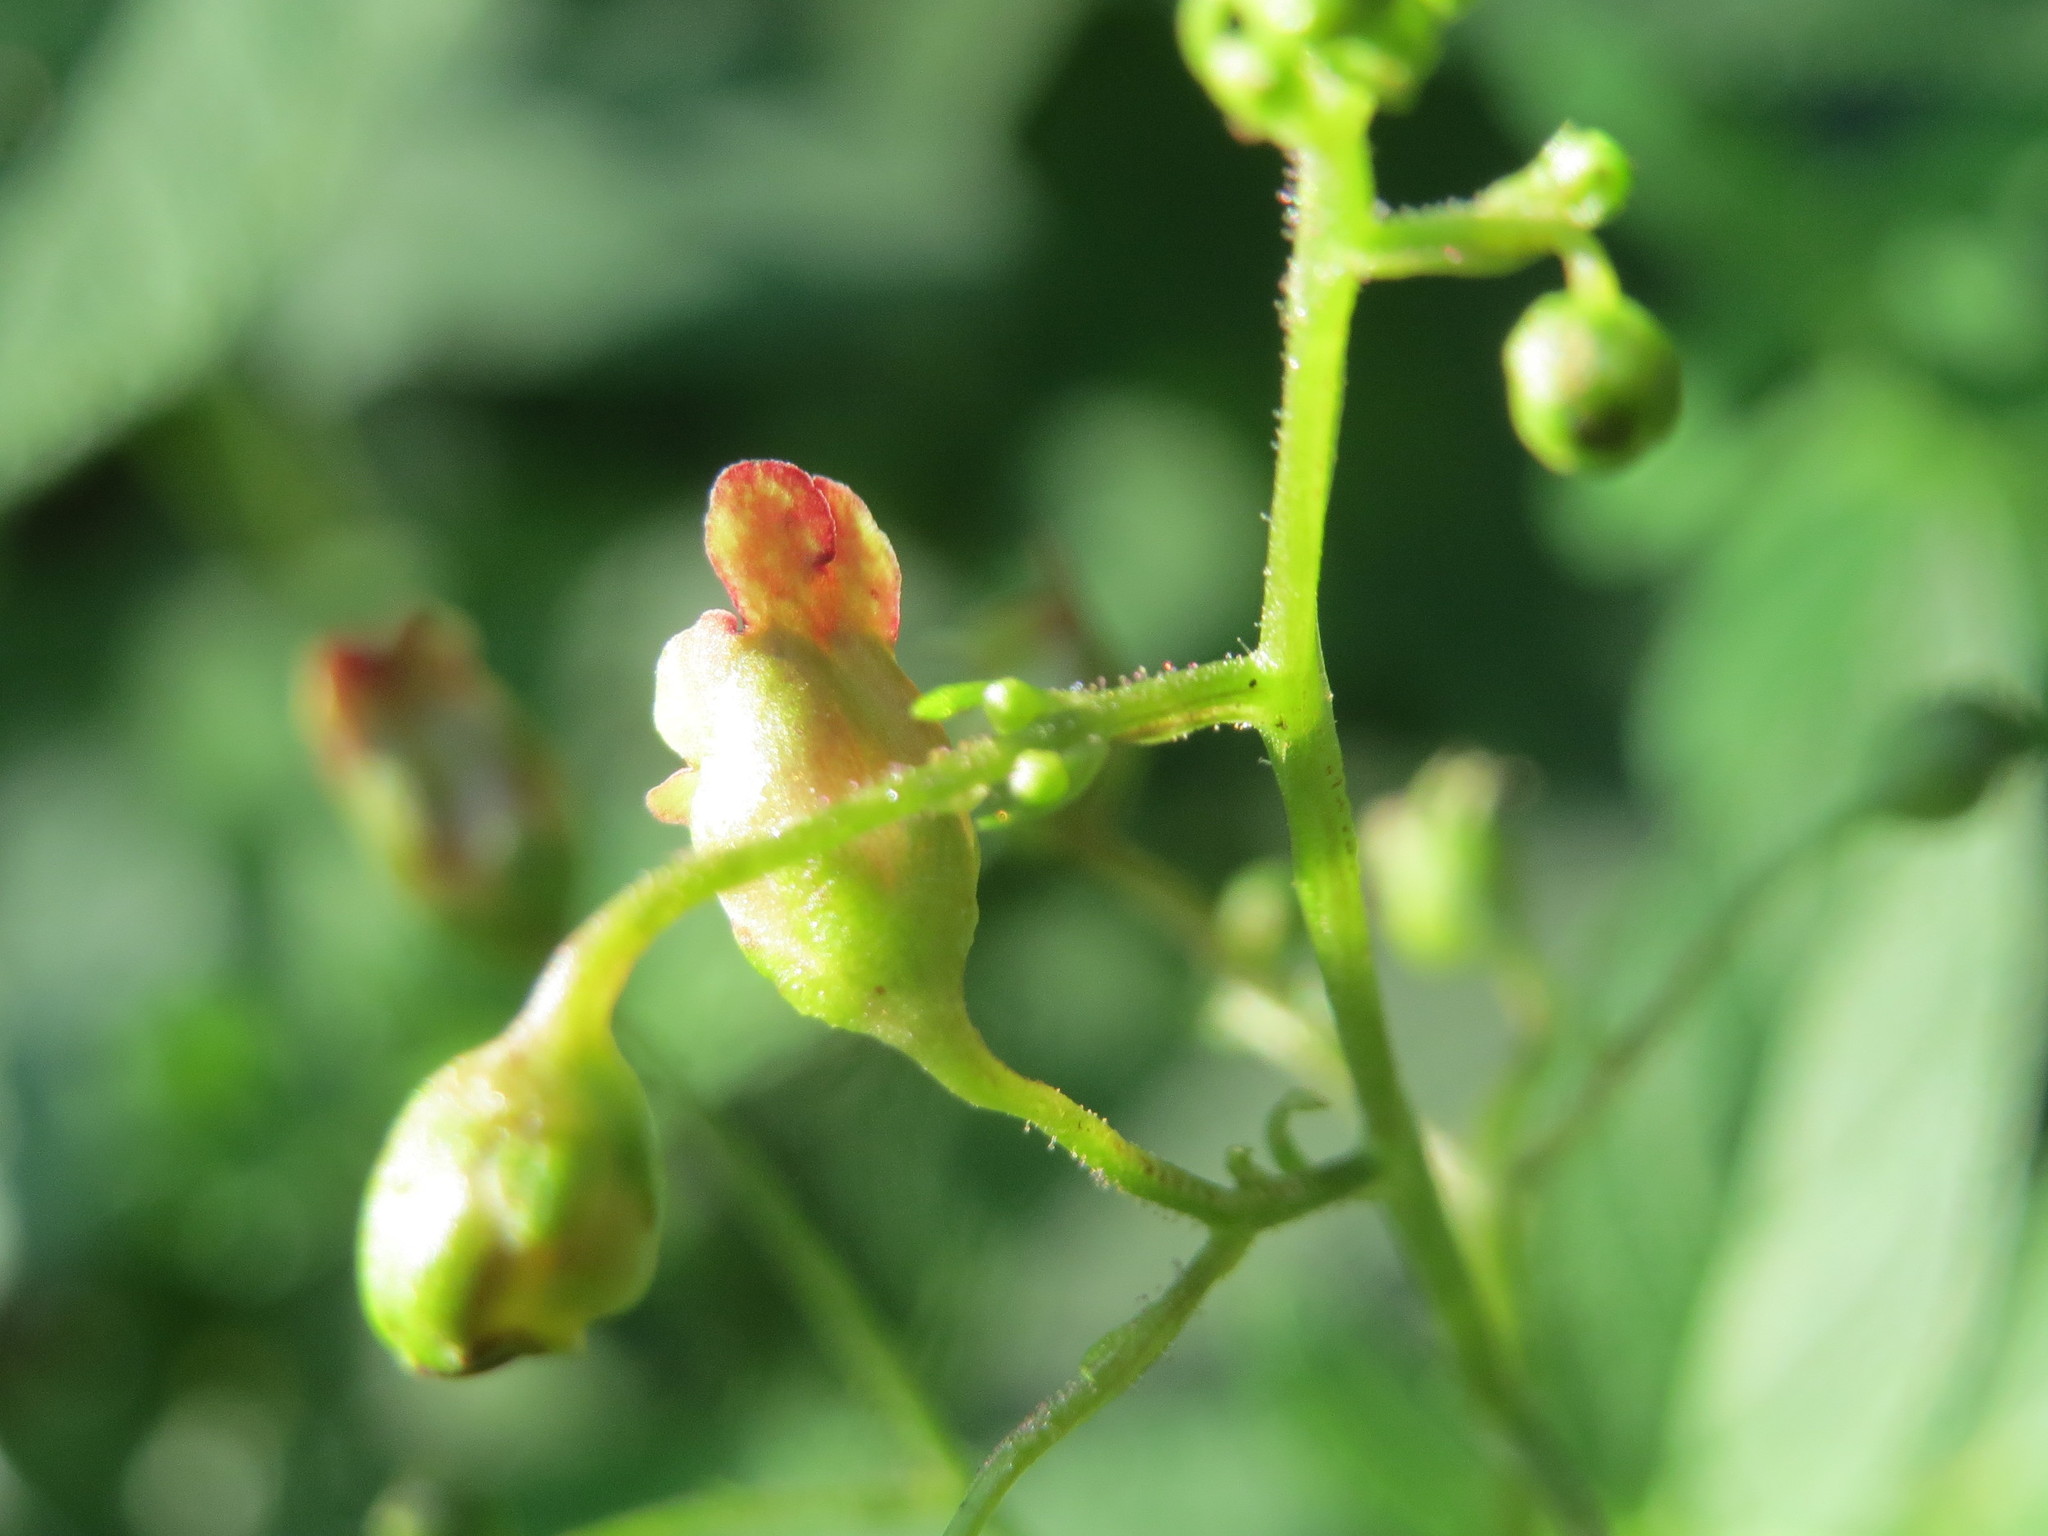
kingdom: Plantae
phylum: Tracheophyta
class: Magnoliopsida
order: Lamiales
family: Scrophulariaceae
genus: Scrophularia
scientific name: Scrophularia nodosa
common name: Common figwort
